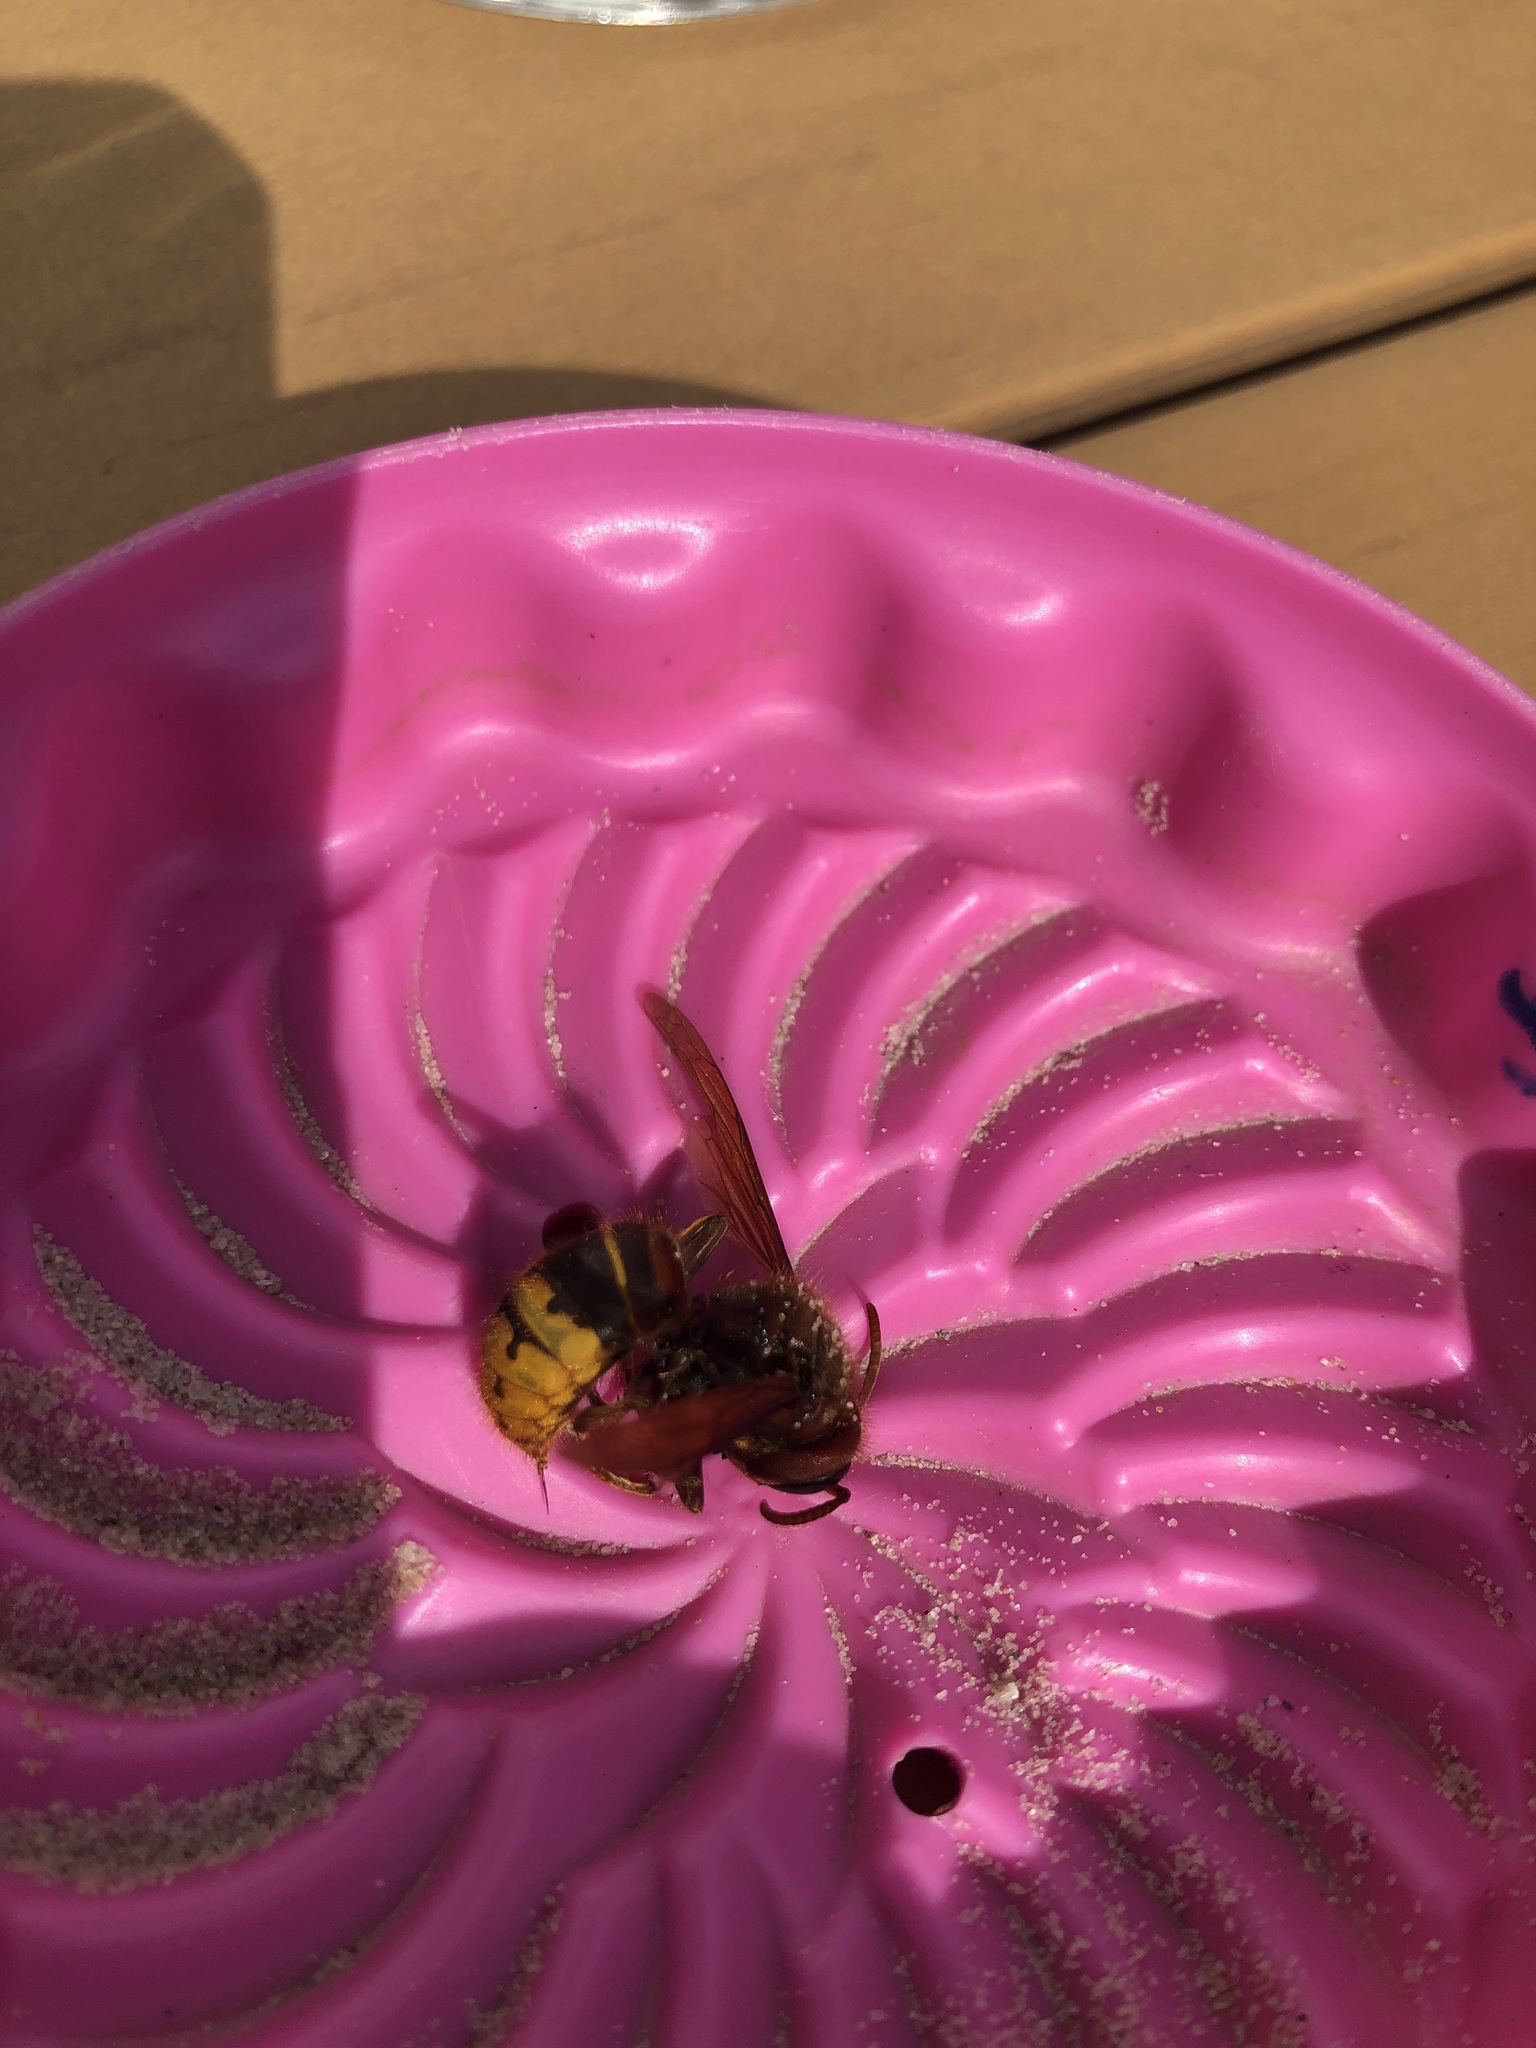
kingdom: Animalia
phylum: Arthropoda
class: Insecta
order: Hymenoptera
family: Vespidae
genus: Vespa
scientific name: Vespa crabro
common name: Hornet
